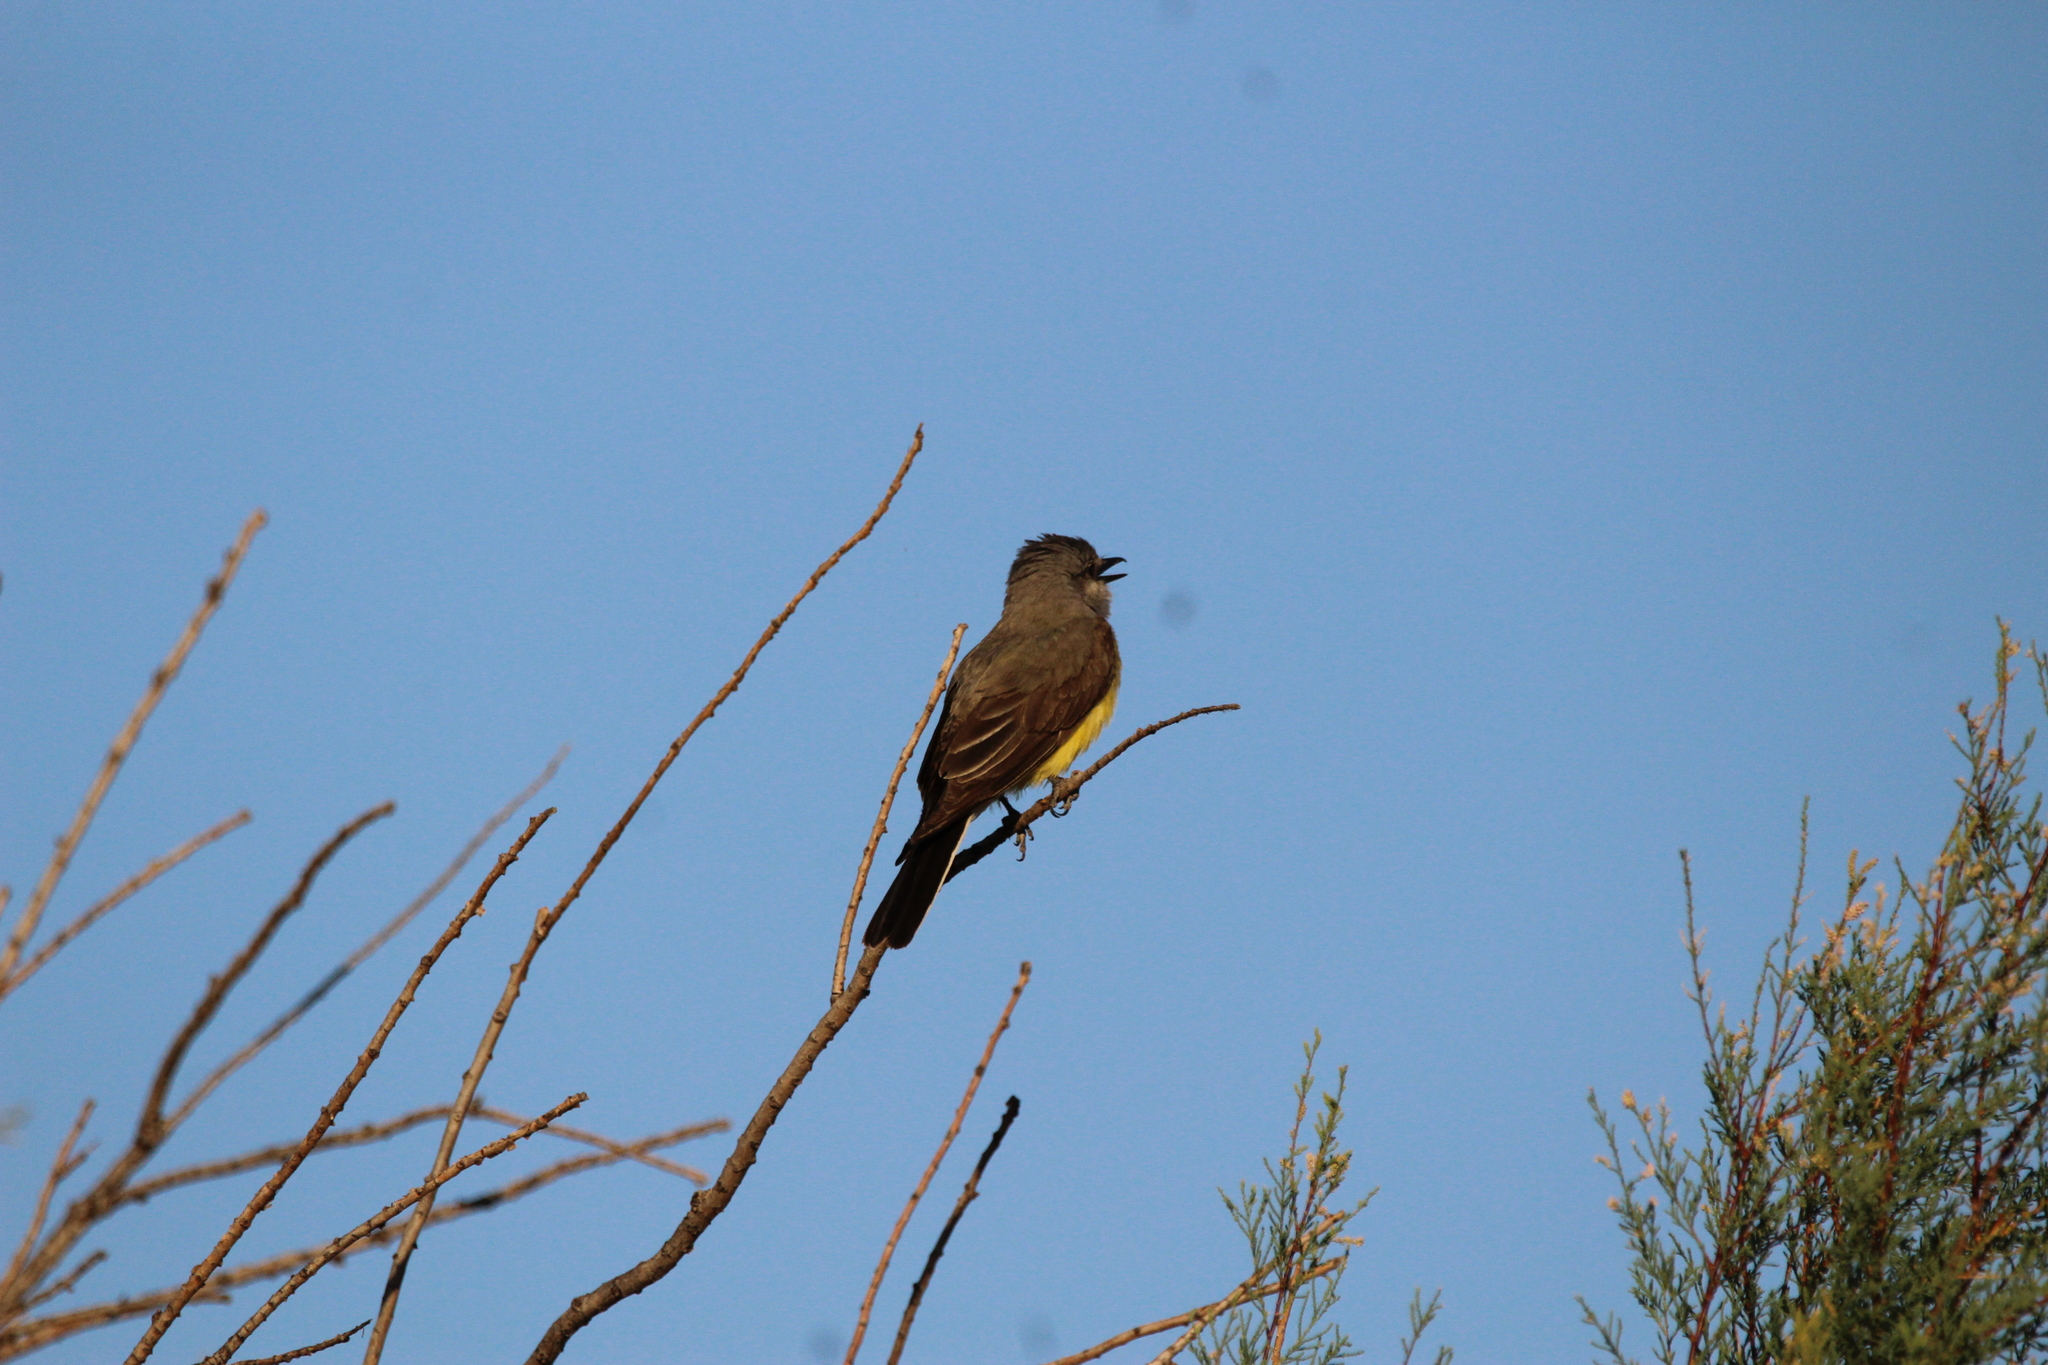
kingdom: Animalia
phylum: Chordata
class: Aves
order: Passeriformes
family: Tyrannidae
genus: Tyrannus
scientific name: Tyrannus verticalis
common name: Western kingbird
